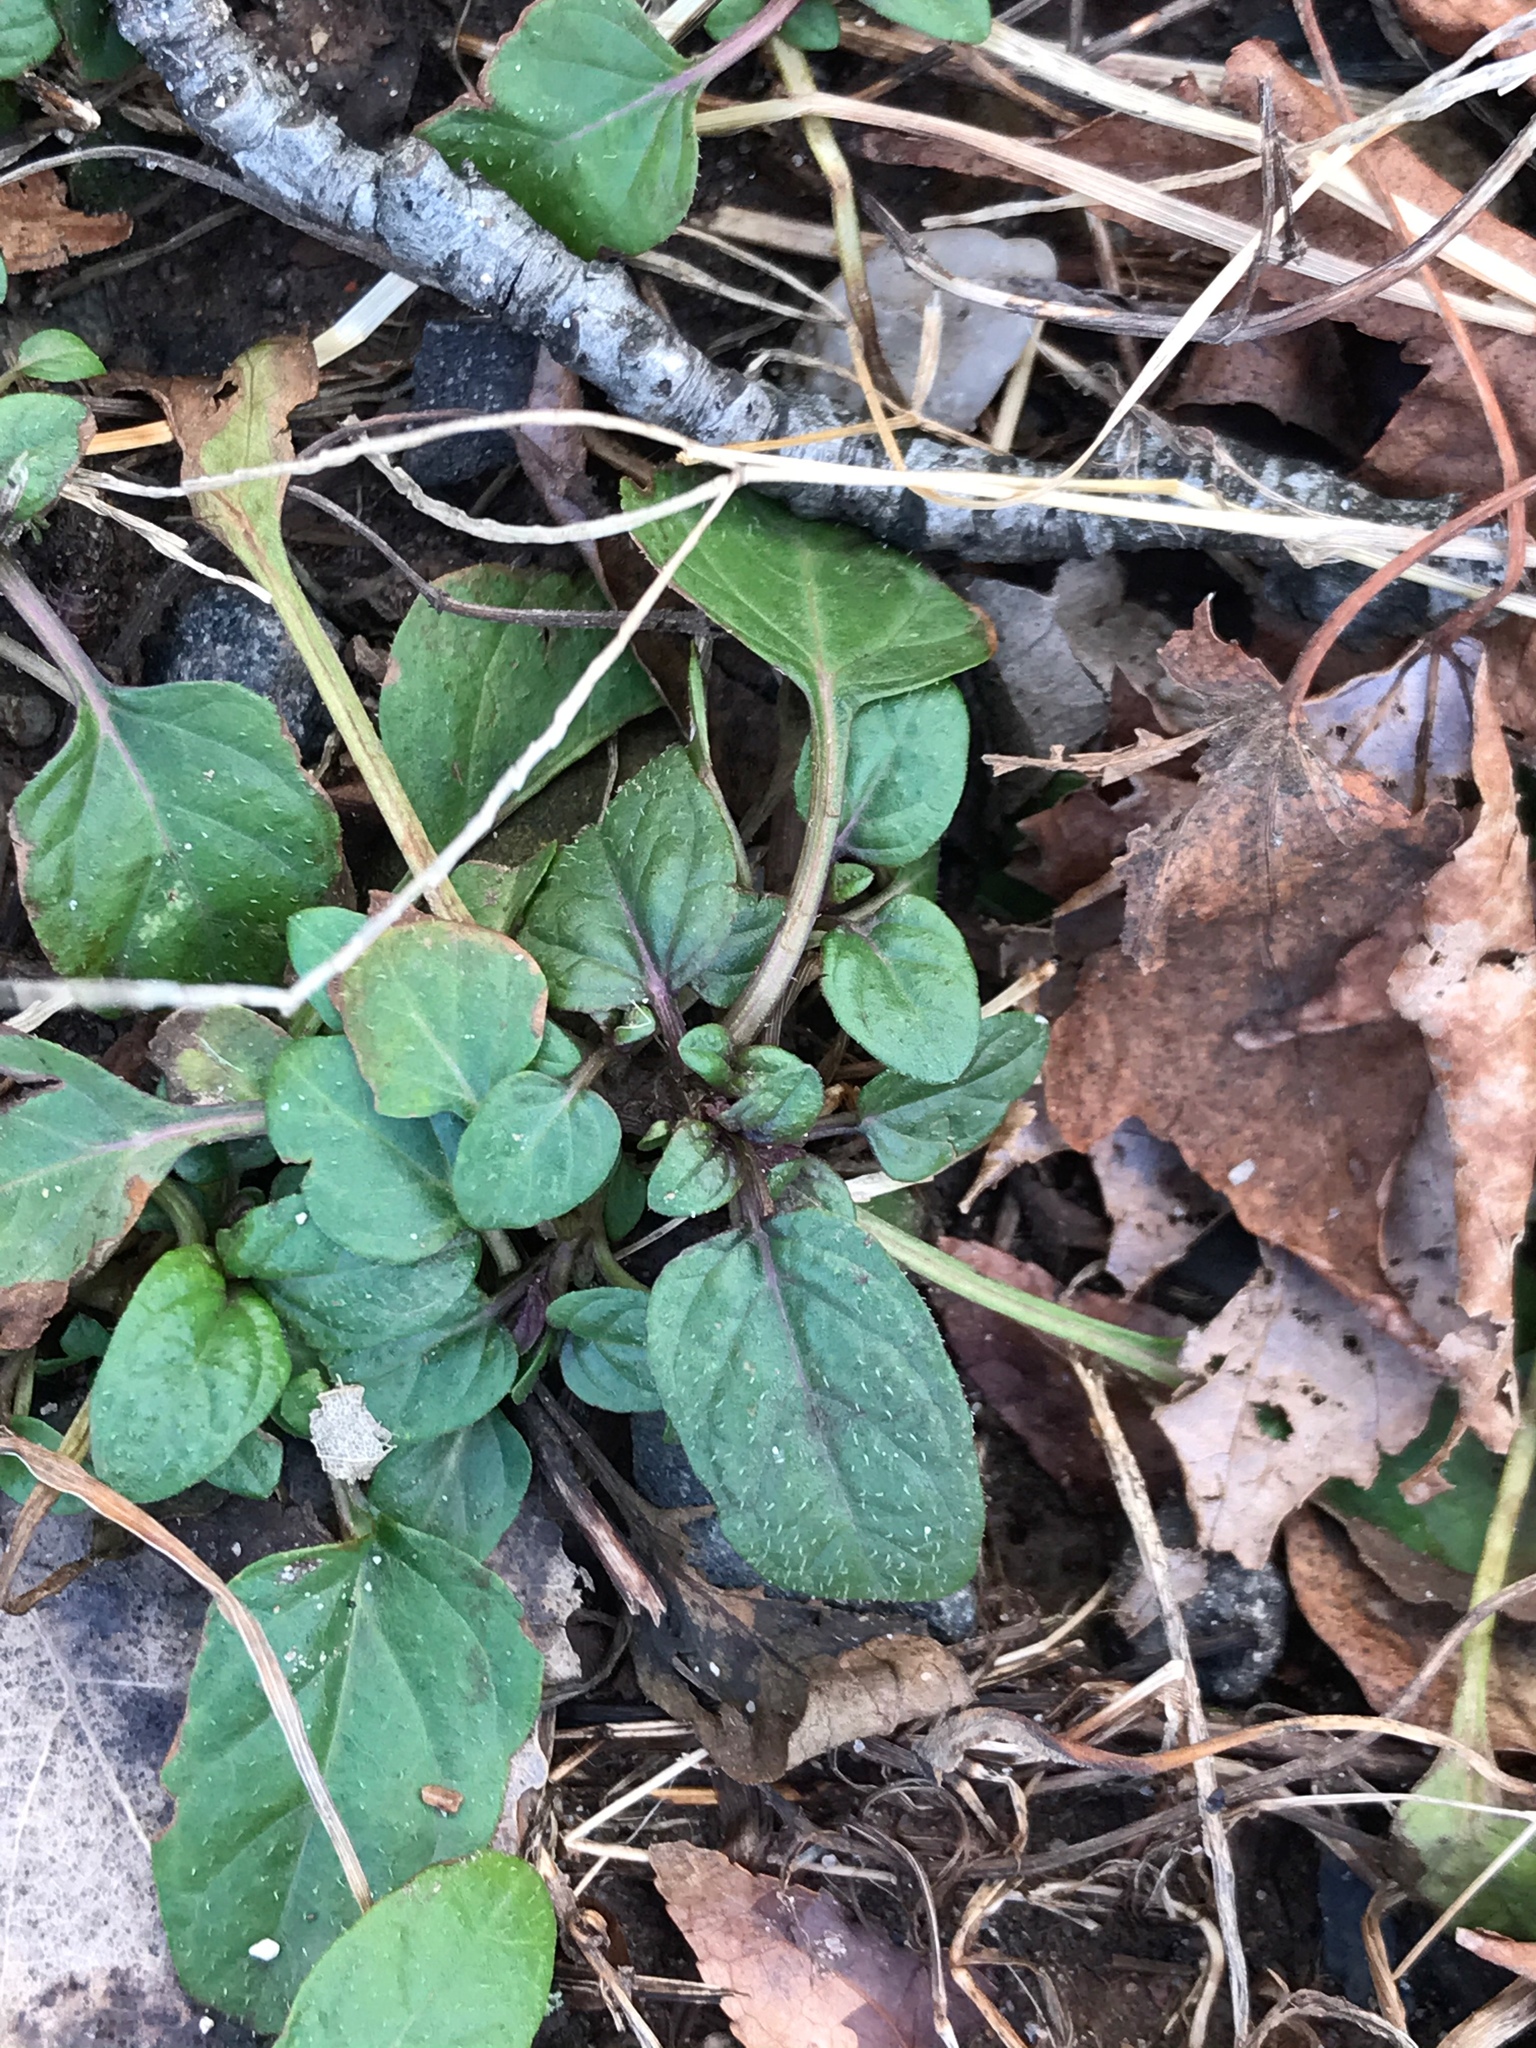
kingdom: Plantae
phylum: Tracheophyta
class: Magnoliopsida
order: Lamiales
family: Lamiaceae
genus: Prunella
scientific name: Prunella vulgaris
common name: Heal-all
